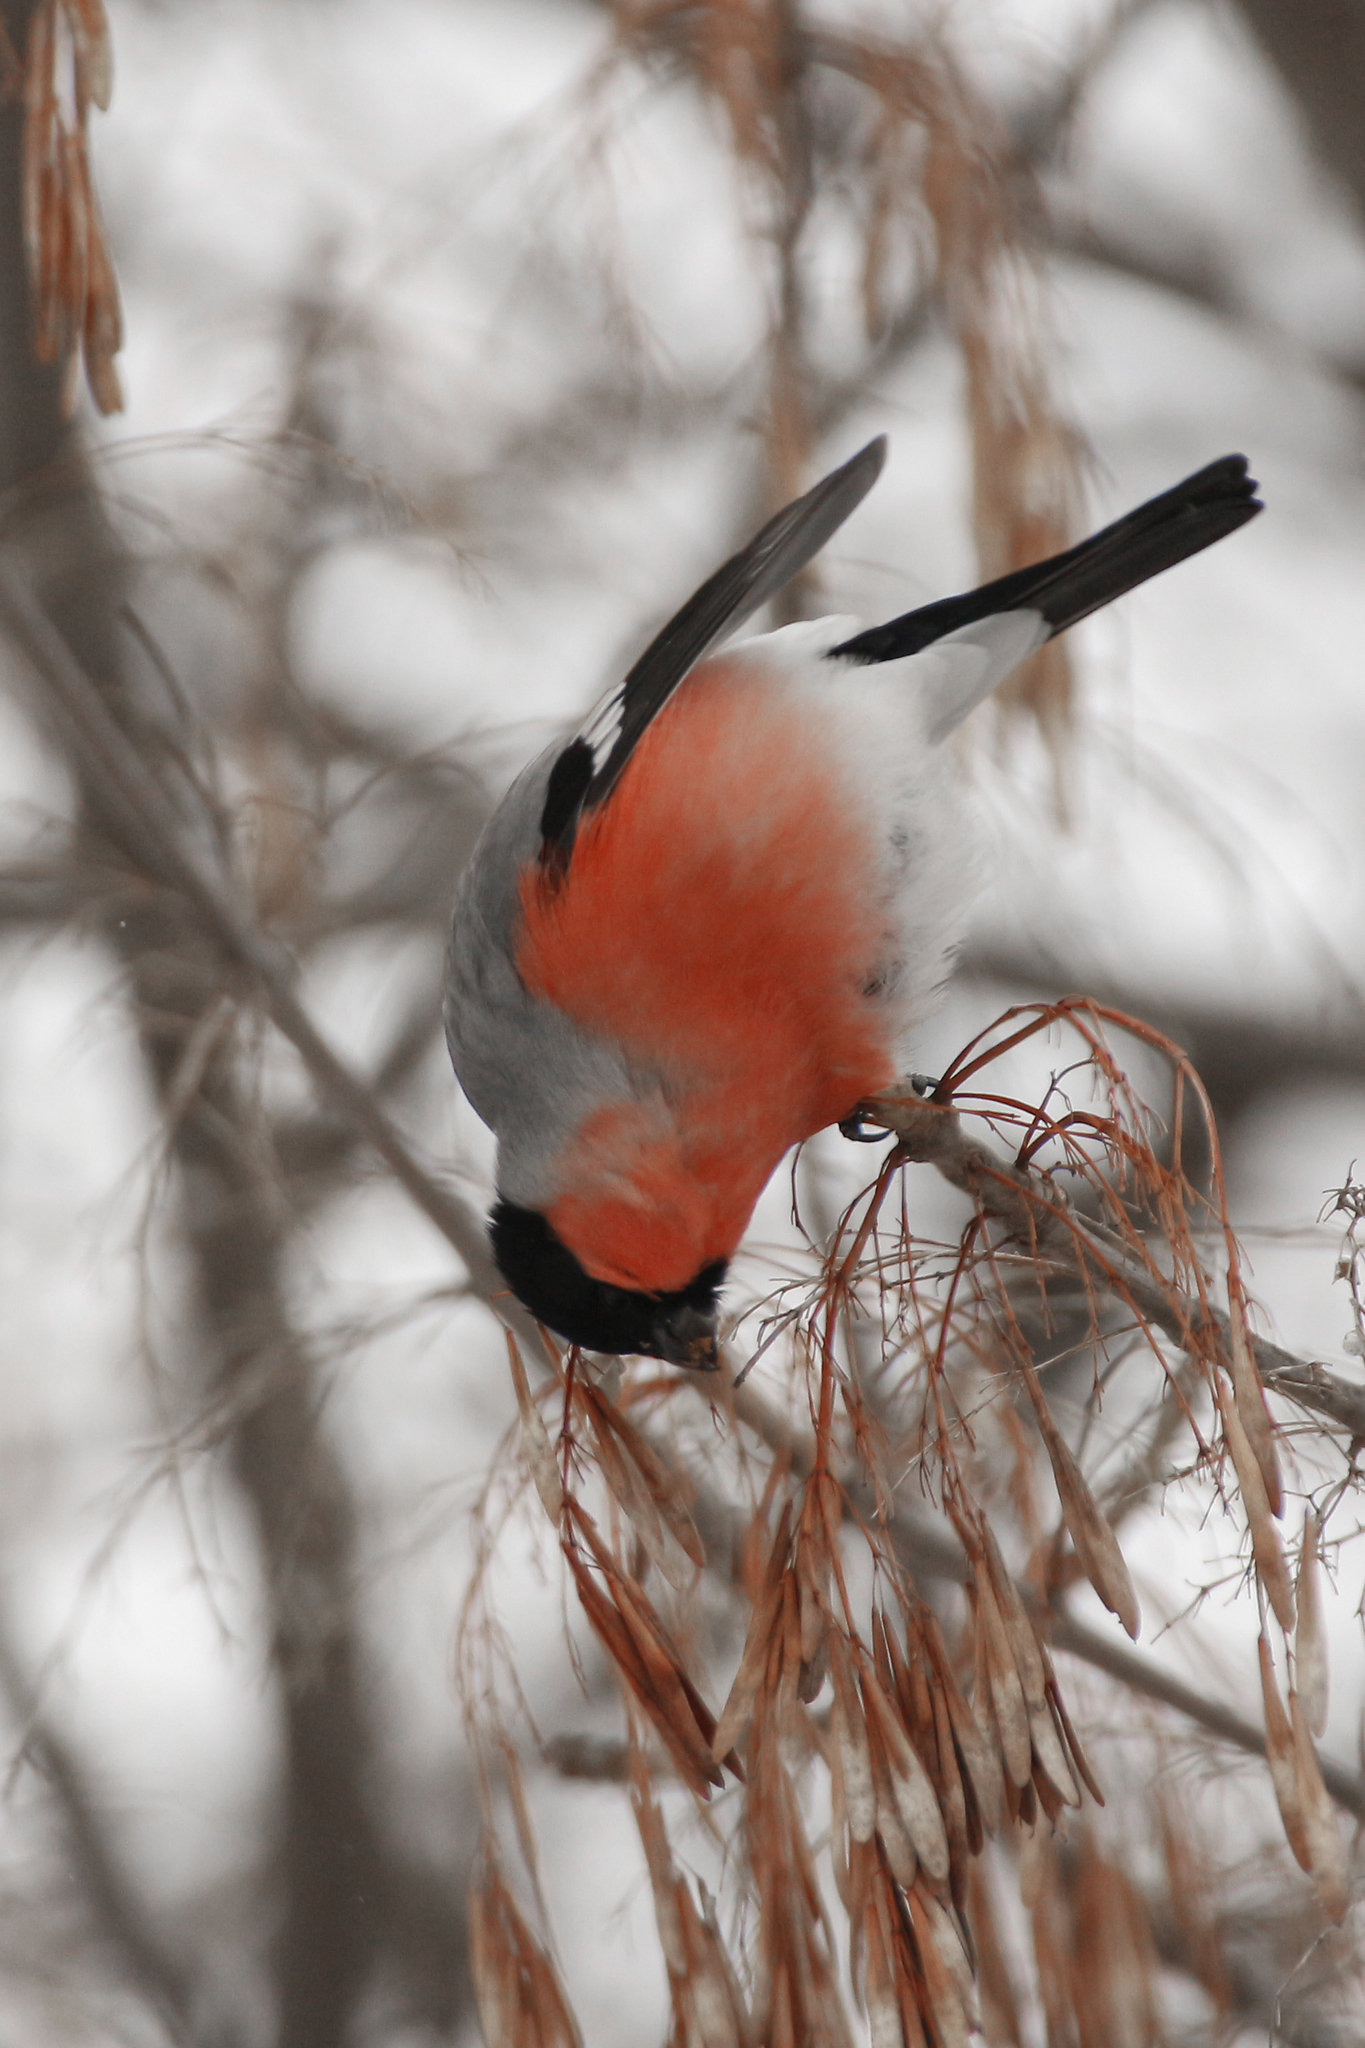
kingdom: Animalia
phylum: Chordata
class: Aves
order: Passeriformes
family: Fringillidae
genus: Pyrrhula
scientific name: Pyrrhula pyrrhula
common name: Eurasian bullfinch
